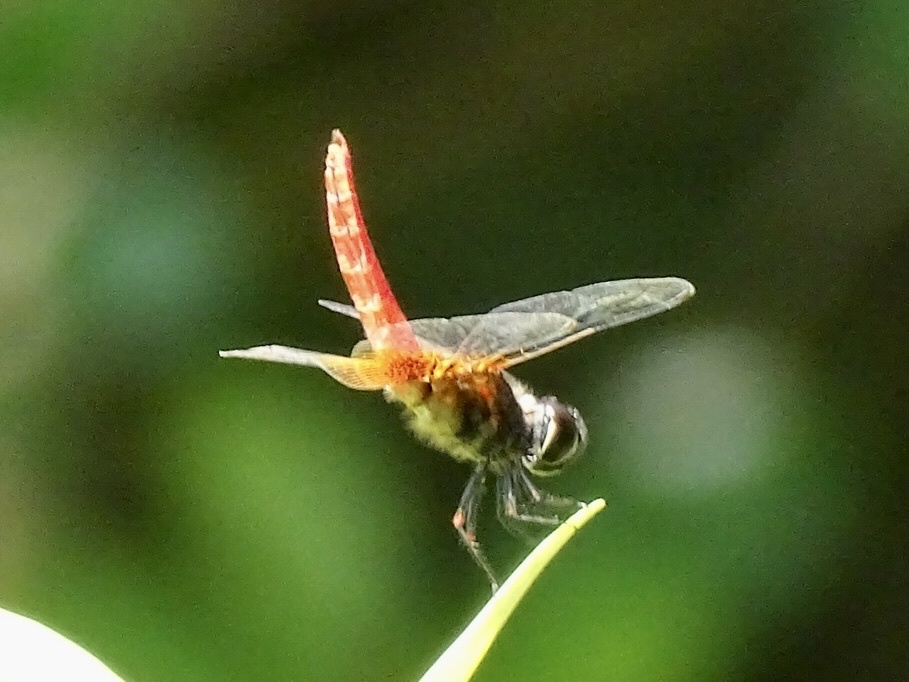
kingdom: Animalia
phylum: Arthropoda
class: Insecta
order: Odonata
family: Libellulidae
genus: Aethriamanta
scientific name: Aethriamanta brevipennis
